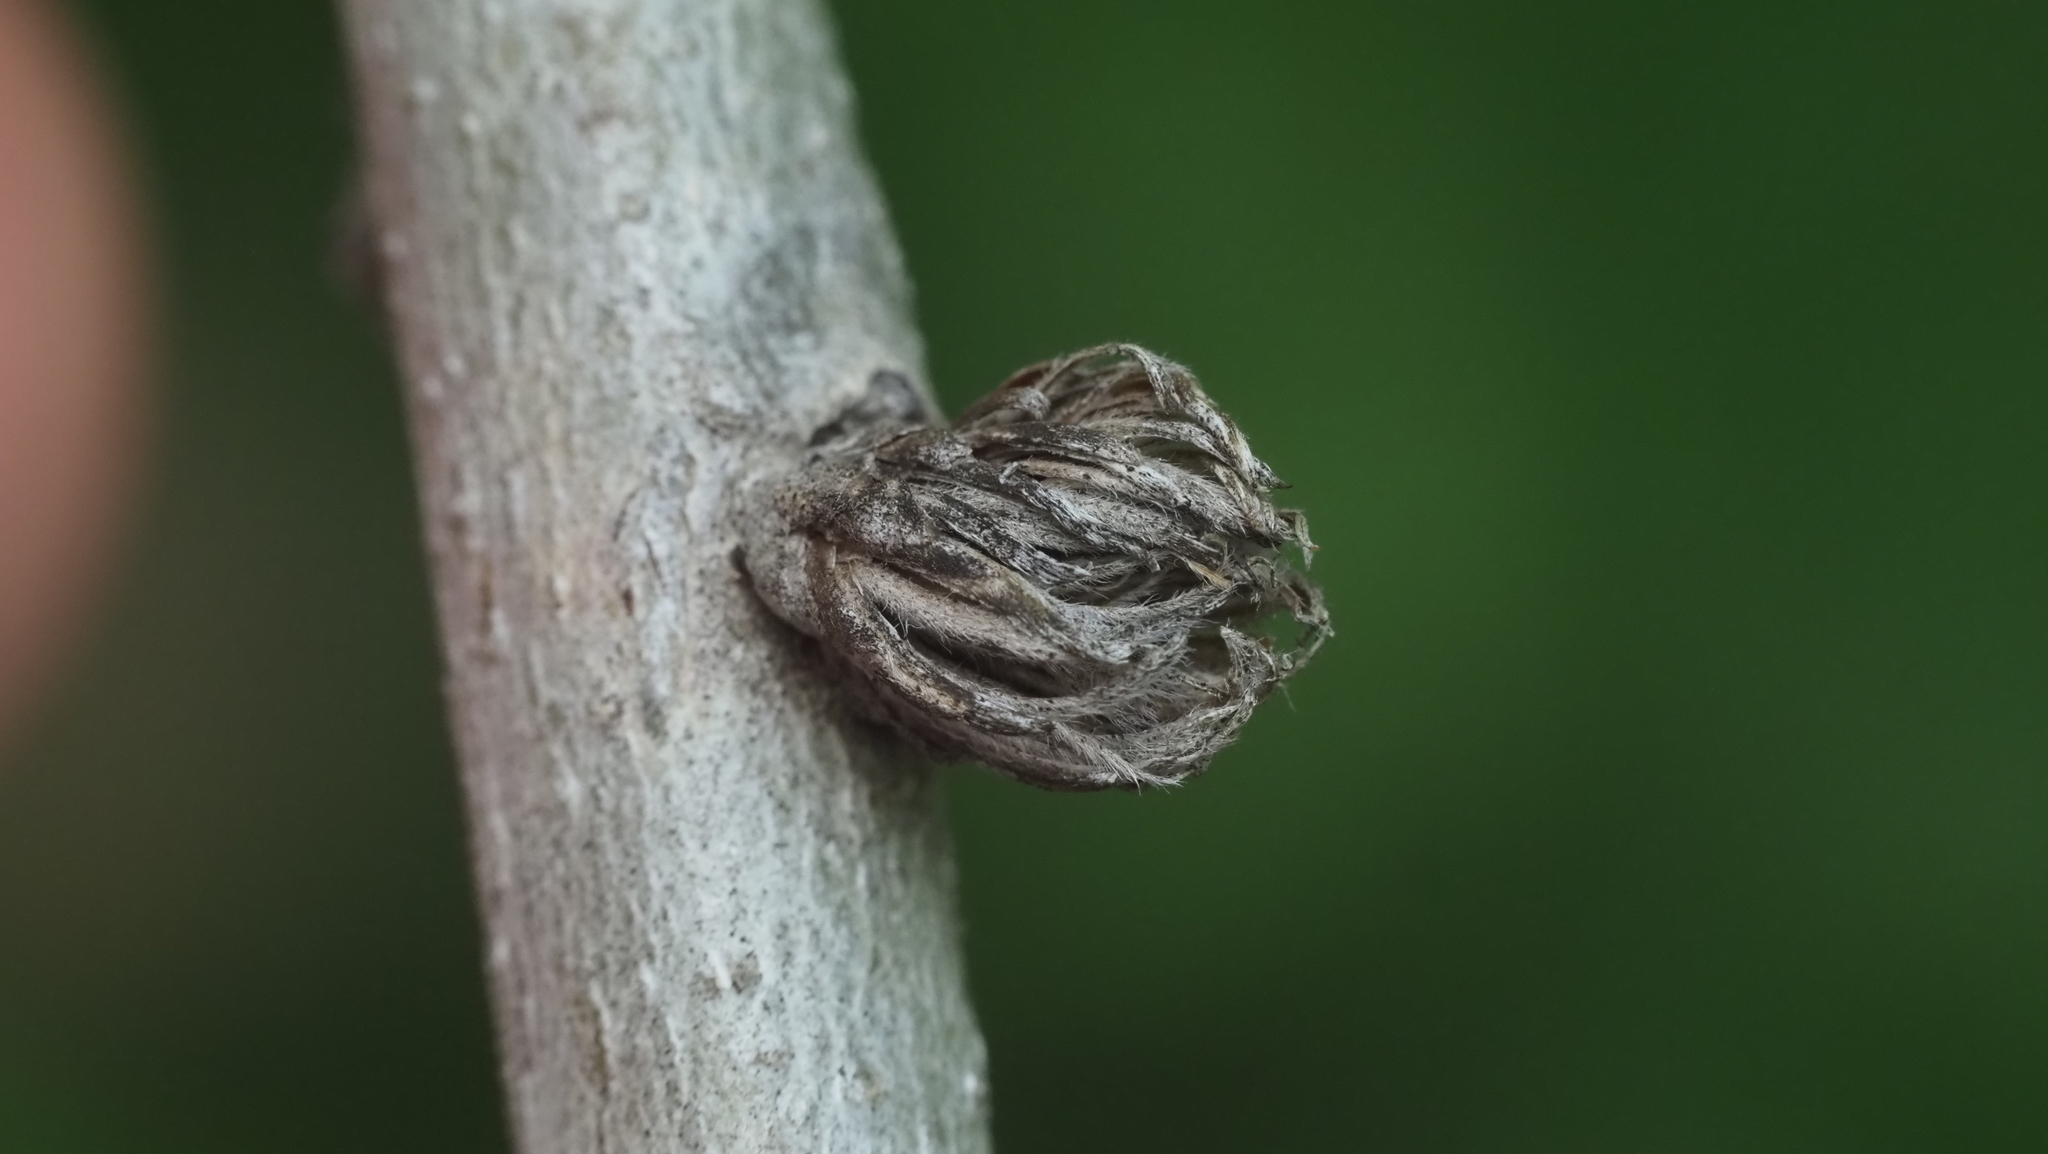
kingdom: Animalia
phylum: Arthropoda
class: Insecta
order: Hymenoptera
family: Cynipidae
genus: Andricus
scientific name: Andricus
